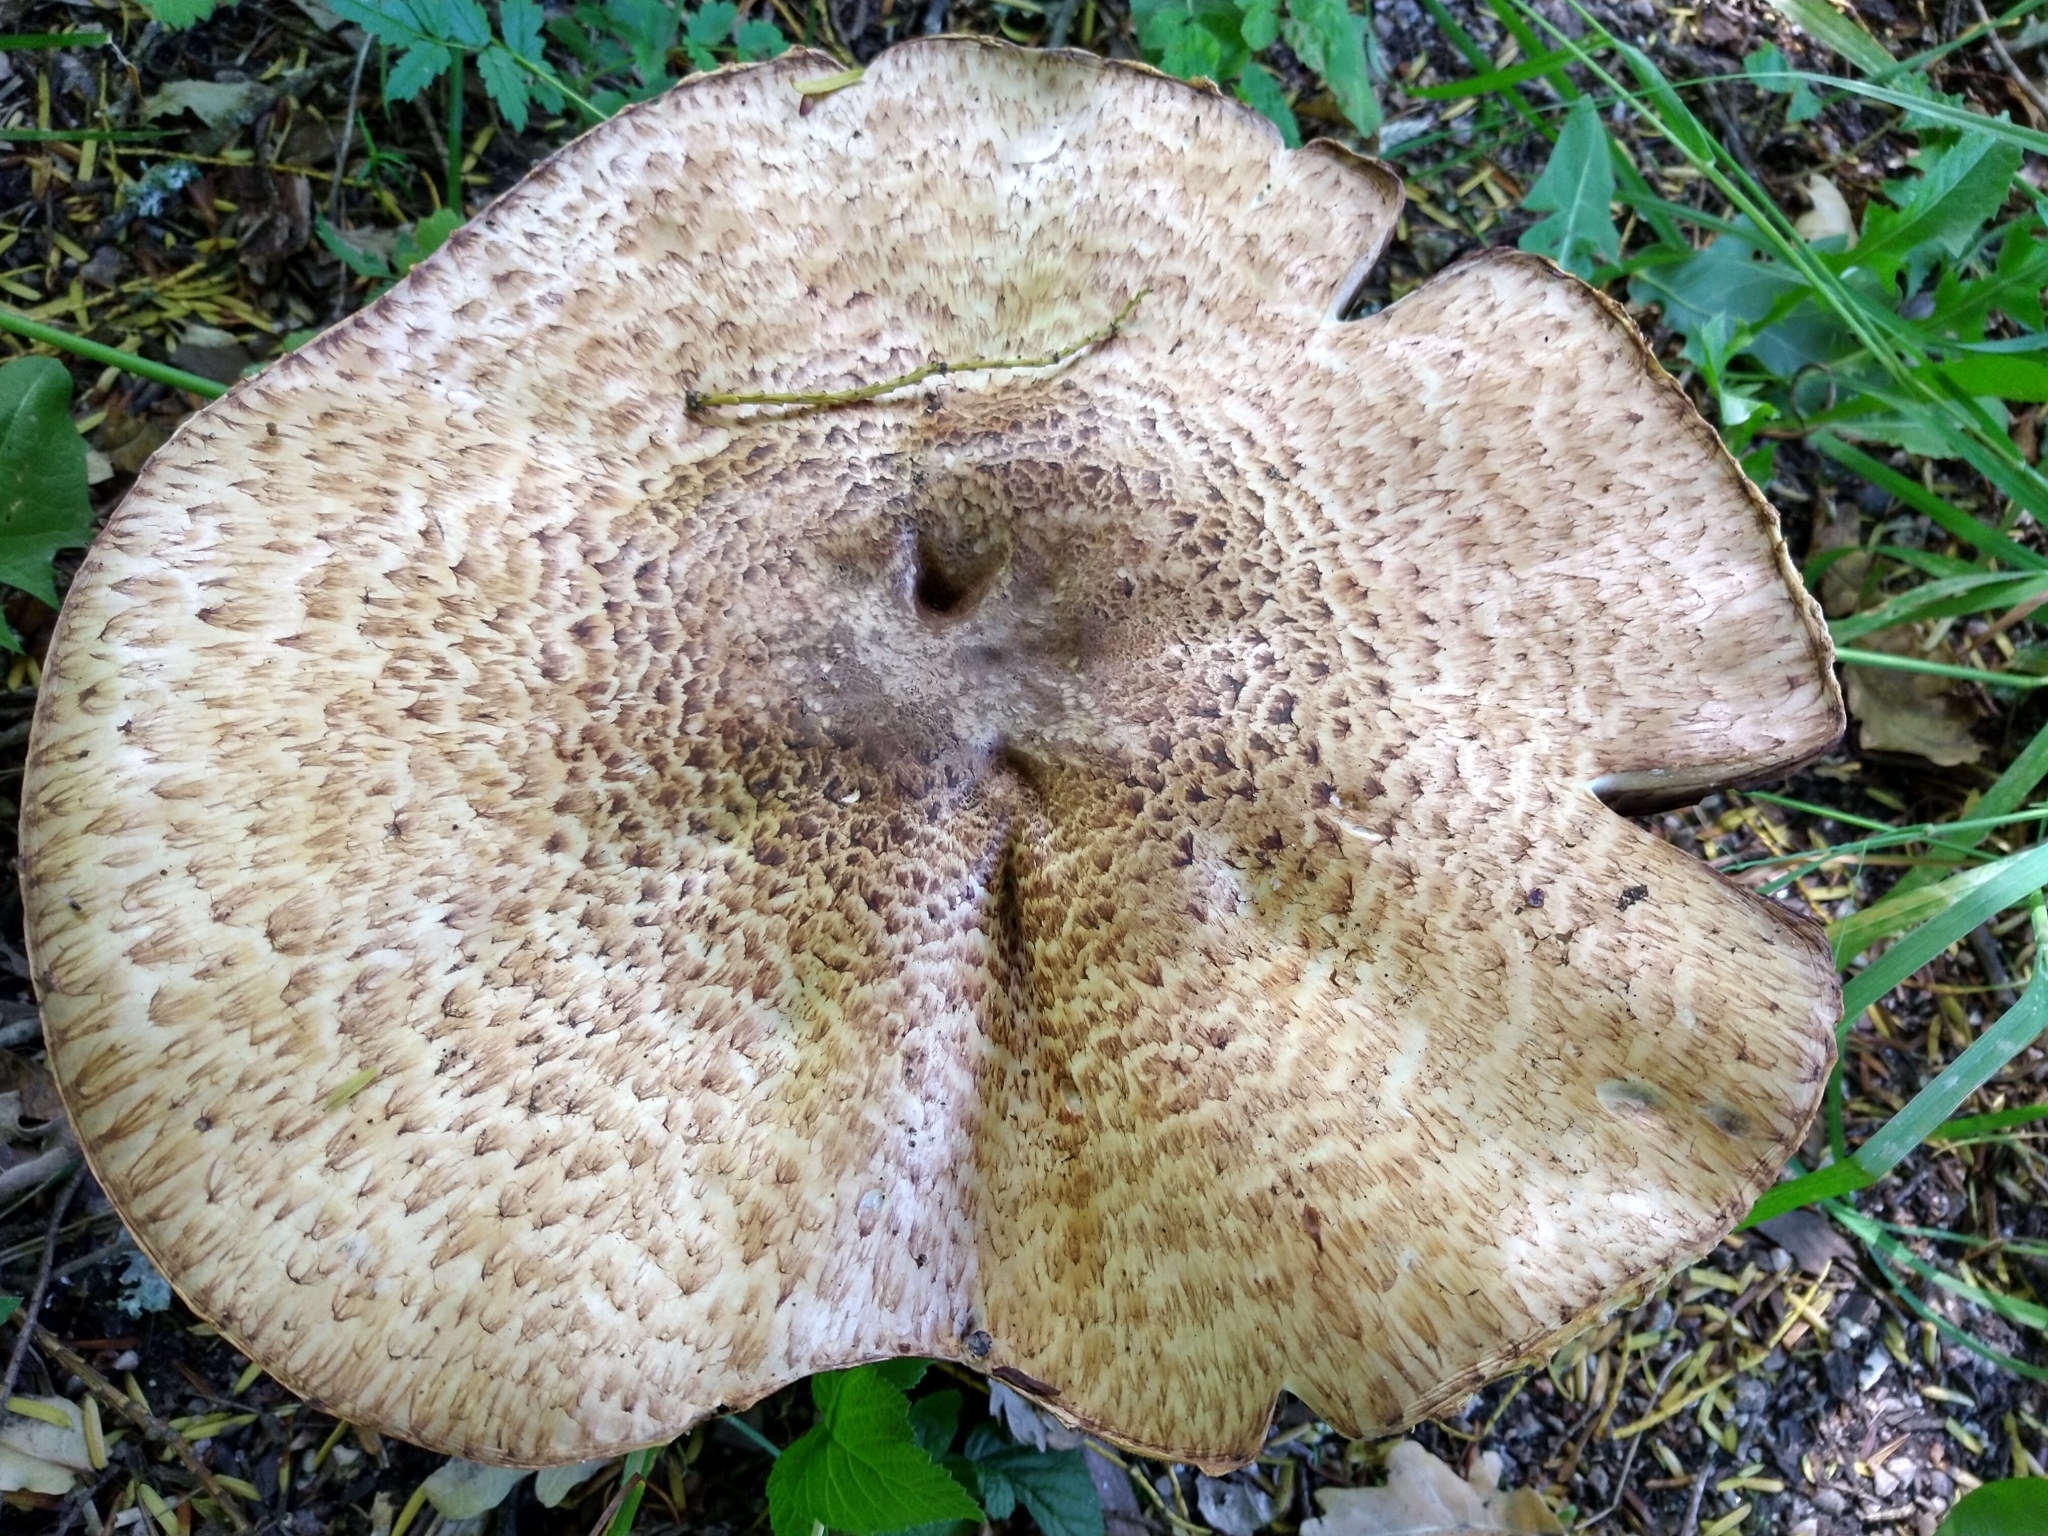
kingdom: Fungi
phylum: Basidiomycota
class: Agaricomycetes
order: Agaricales
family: Agaricaceae
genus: Agaricus
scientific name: Agaricus augustus
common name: Prince
